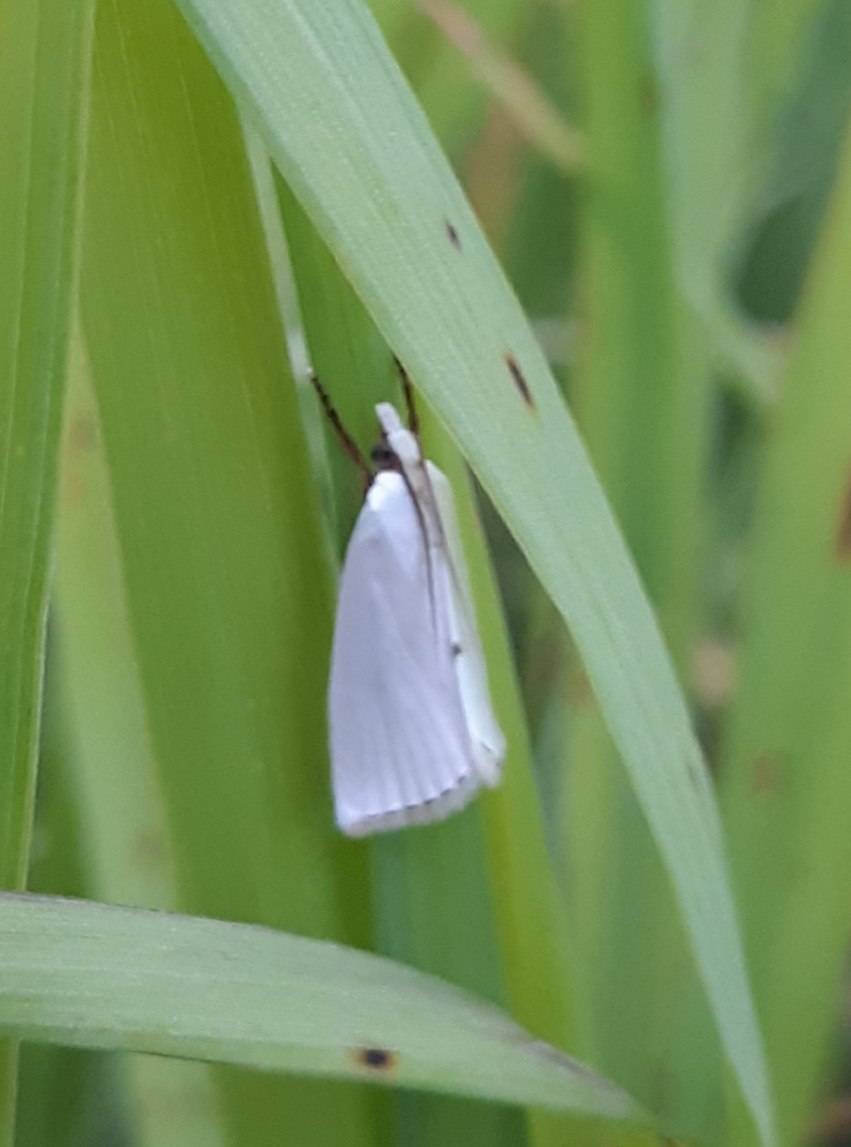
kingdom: Animalia
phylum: Arthropoda
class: Insecta
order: Lepidoptera
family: Crambidae
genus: Argyria
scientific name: Argyria nivalis
